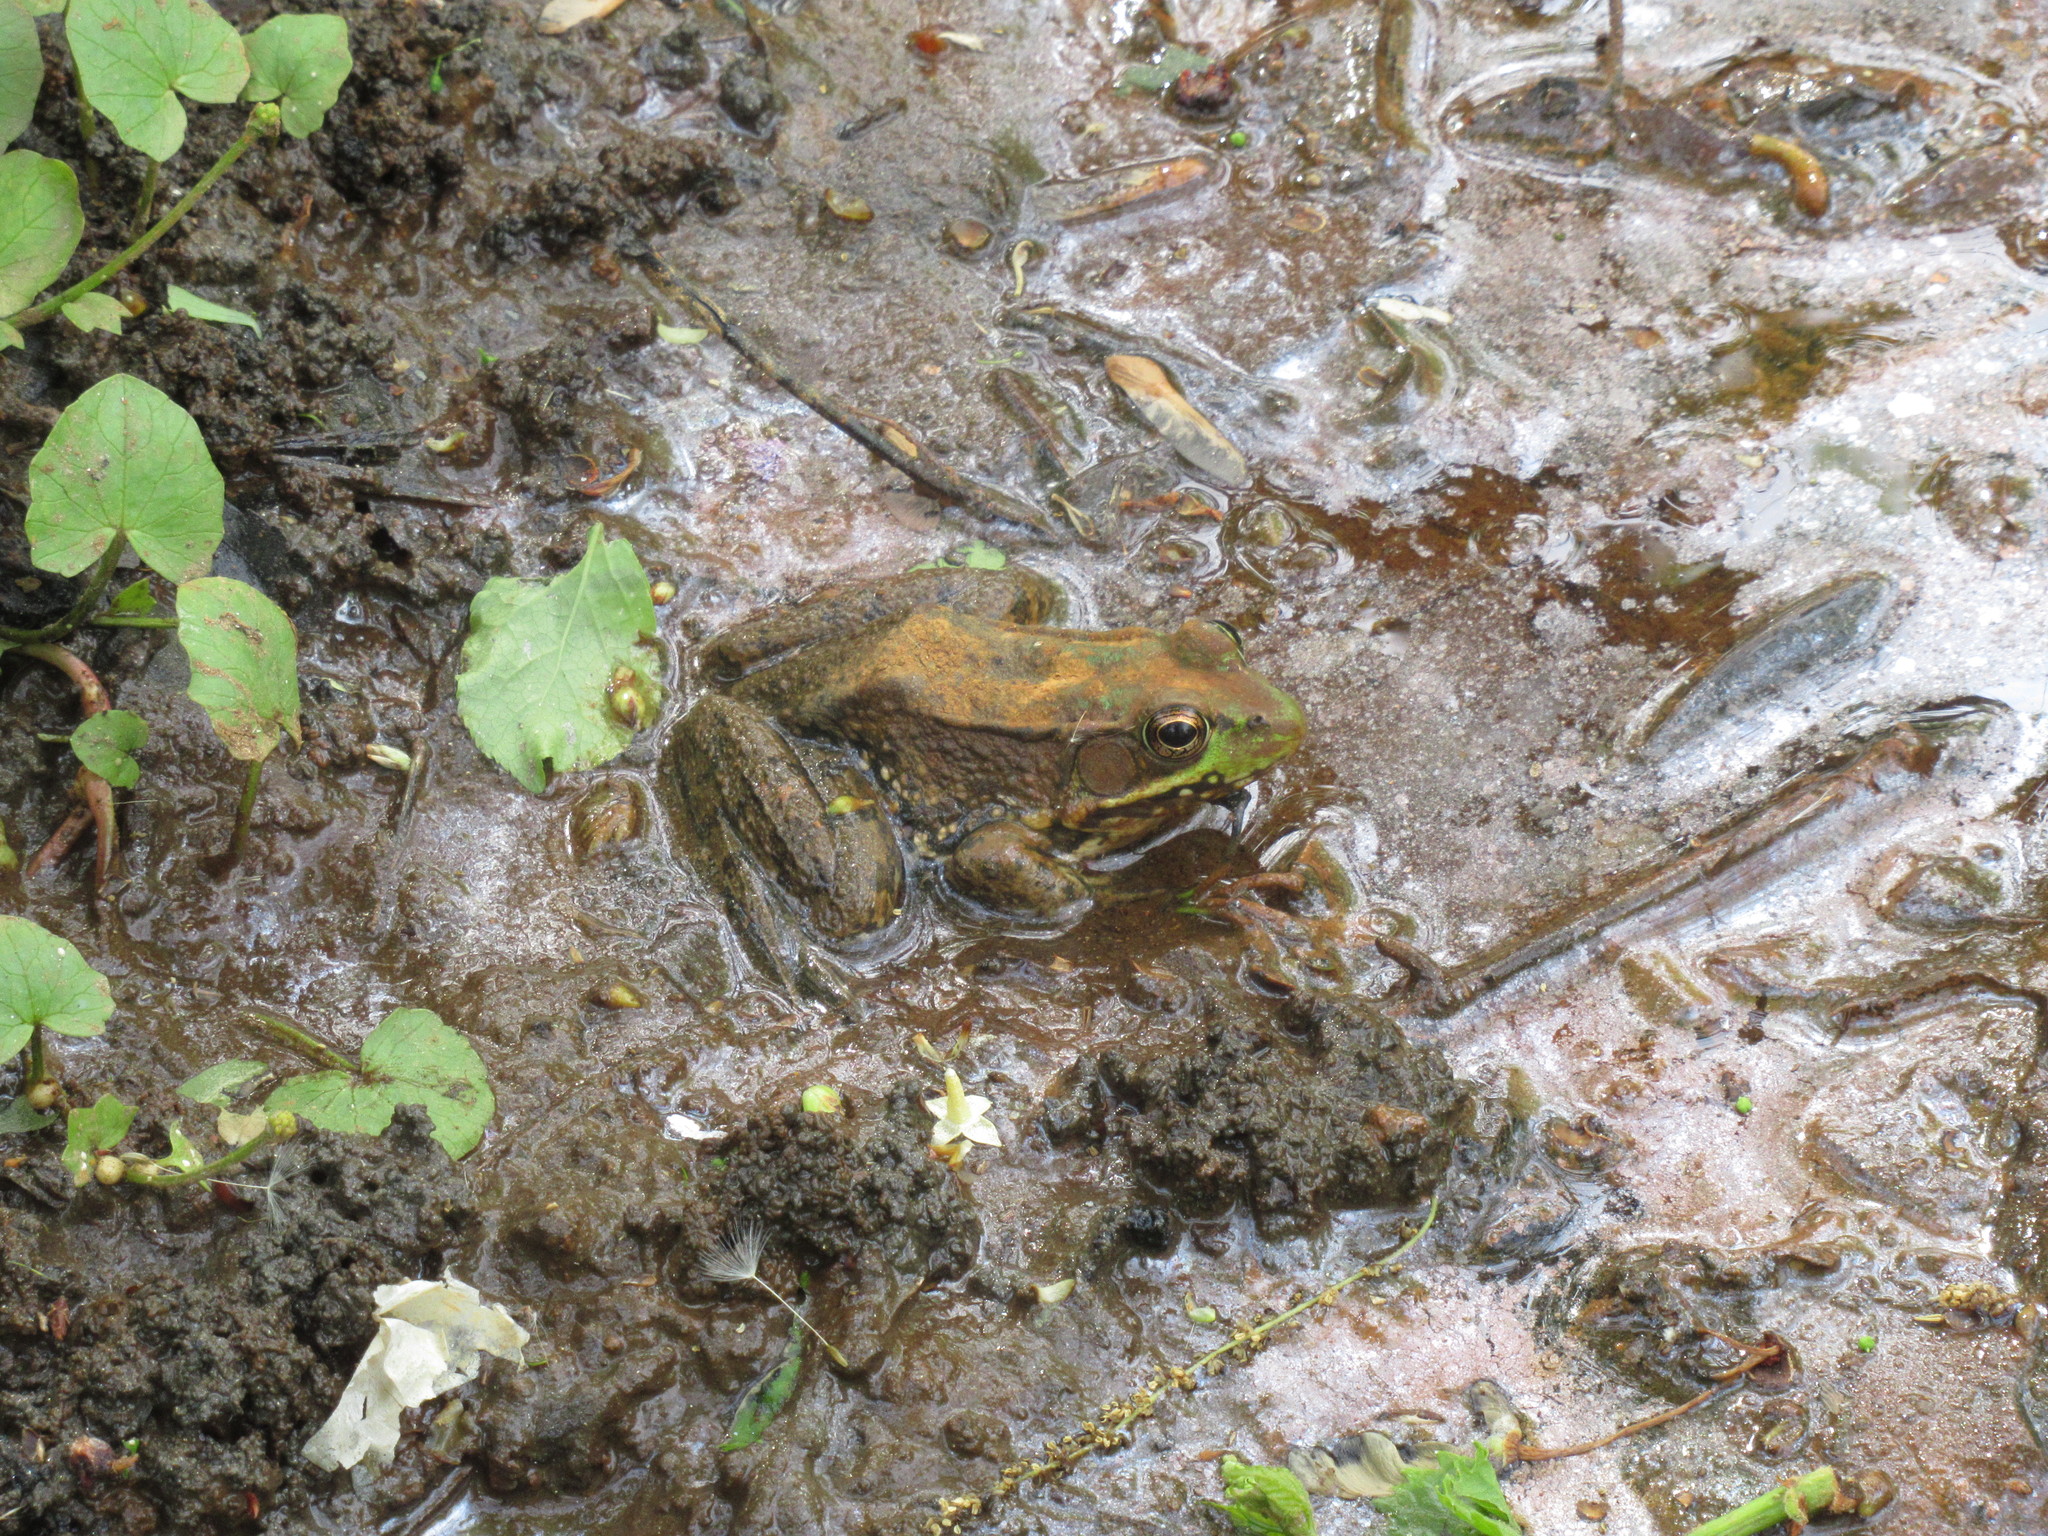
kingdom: Animalia
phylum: Chordata
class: Amphibia
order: Anura
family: Ranidae
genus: Lithobates
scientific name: Lithobates clamitans
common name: Green frog
